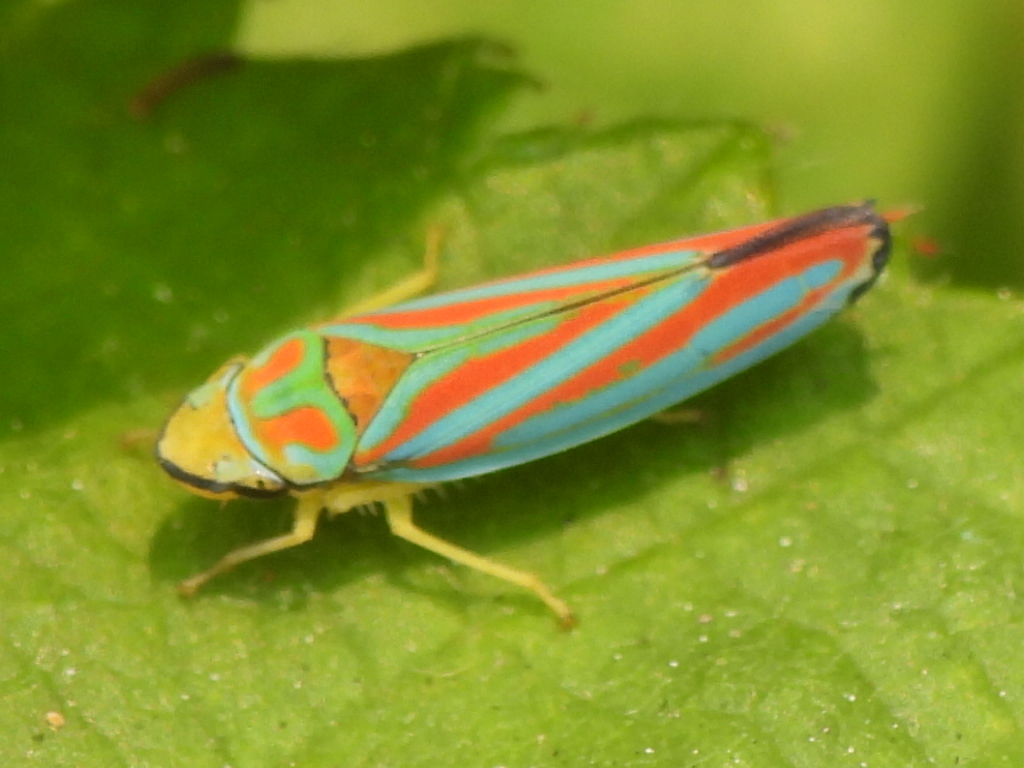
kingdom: Animalia
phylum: Arthropoda
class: Insecta
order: Hemiptera
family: Cicadellidae
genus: Graphocephala
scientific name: Graphocephala coccinea
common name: Candy-striped leafhopper
